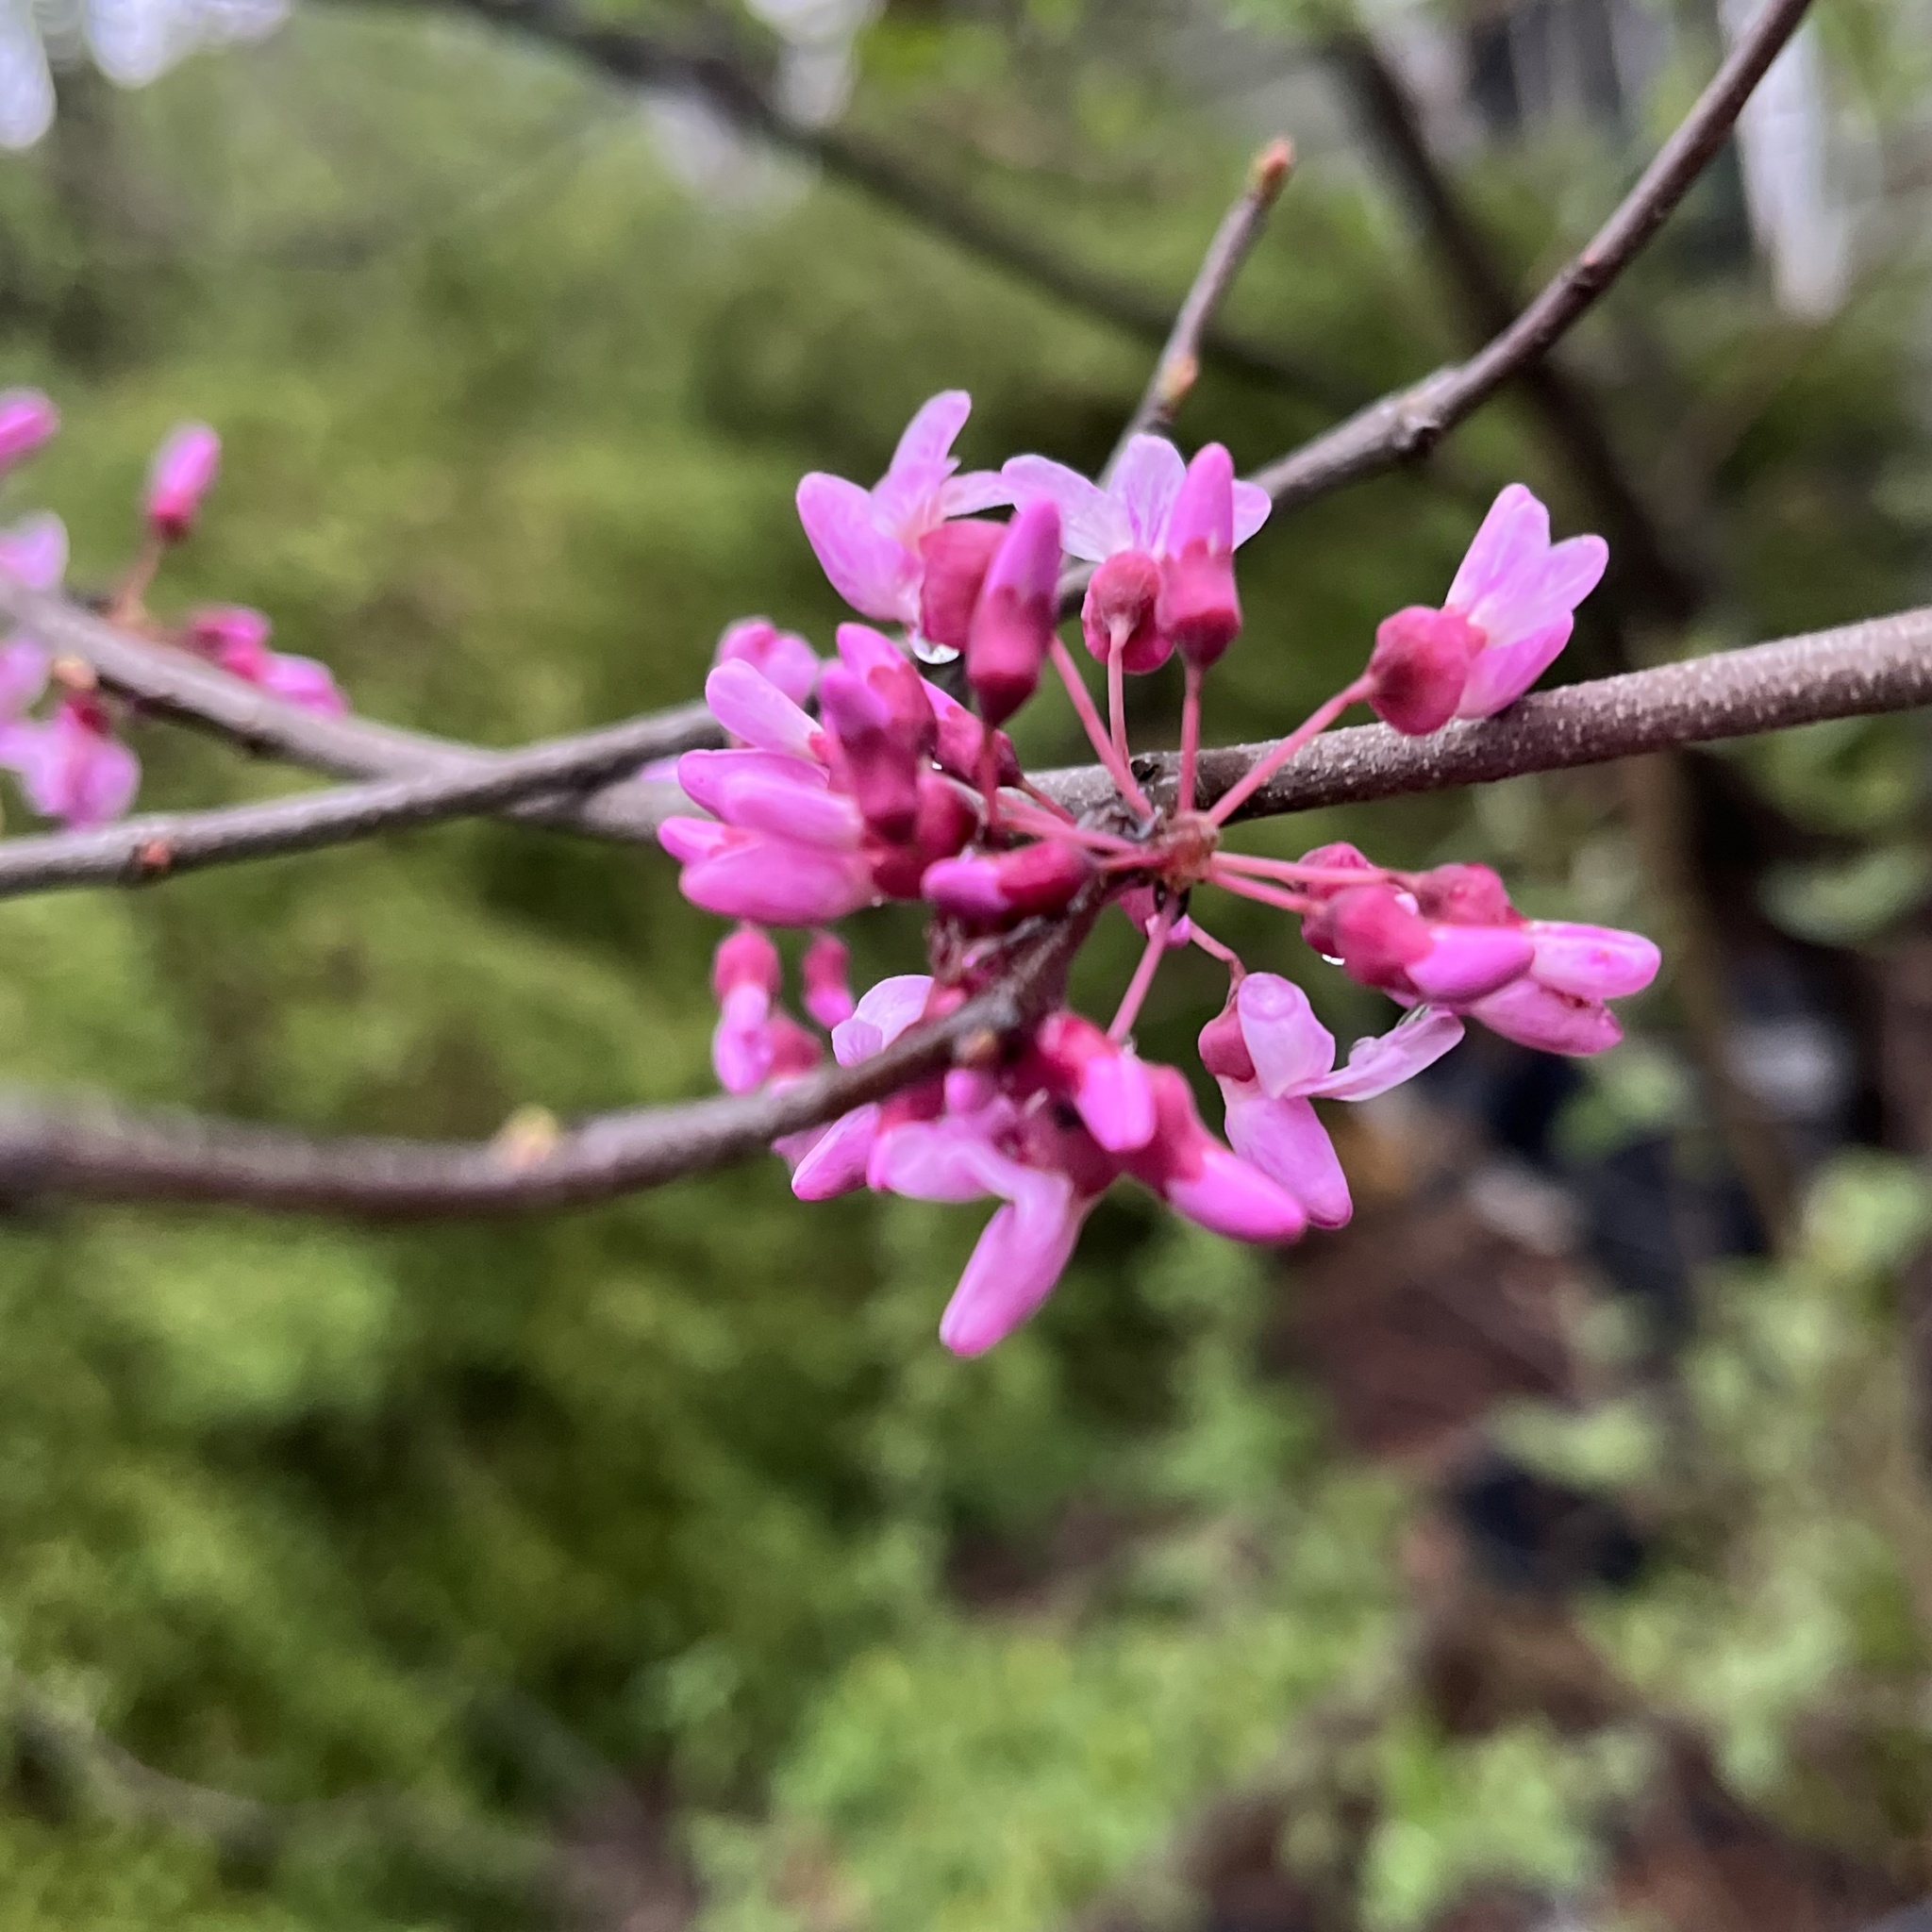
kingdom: Plantae
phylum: Tracheophyta
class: Magnoliopsida
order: Fabales
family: Fabaceae
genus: Cercis
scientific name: Cercis canadensis
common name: Eastern redbud
